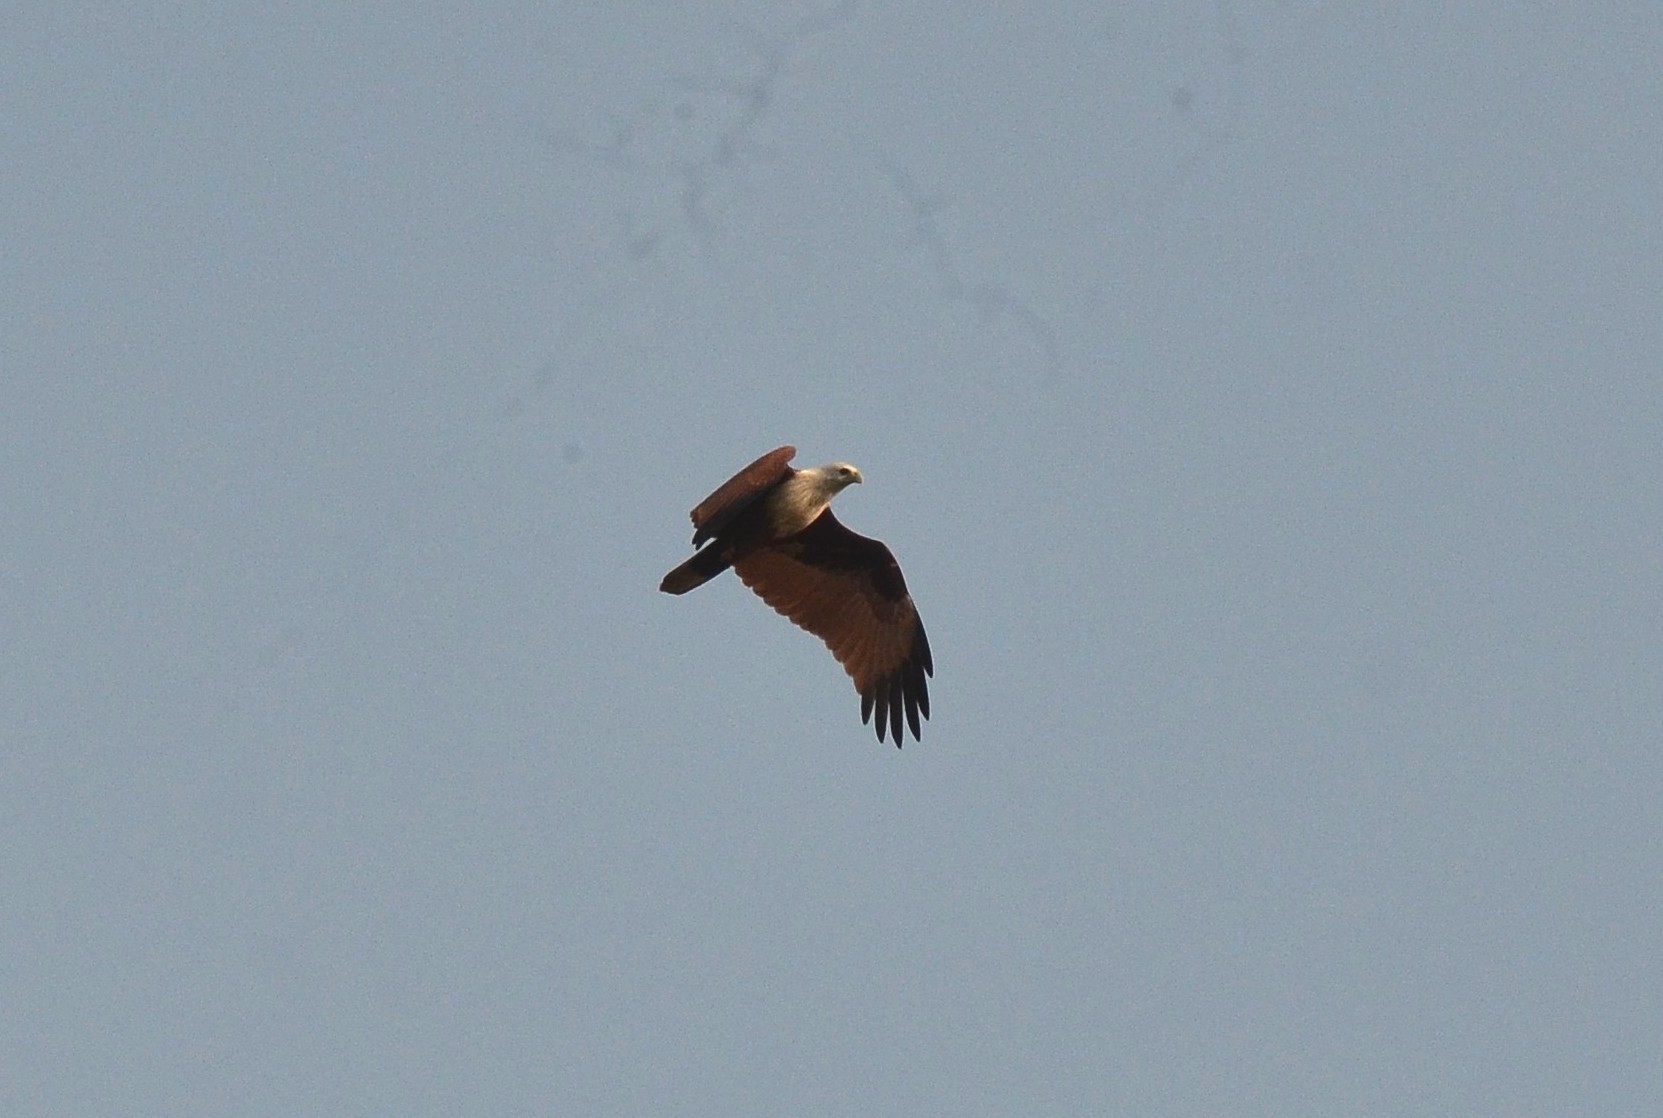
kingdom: Animalia
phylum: Chordata
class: Aves
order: Accipitriformes
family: Accipitridae
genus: Haliastur
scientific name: Haliastur indus
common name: Brahminy kite
